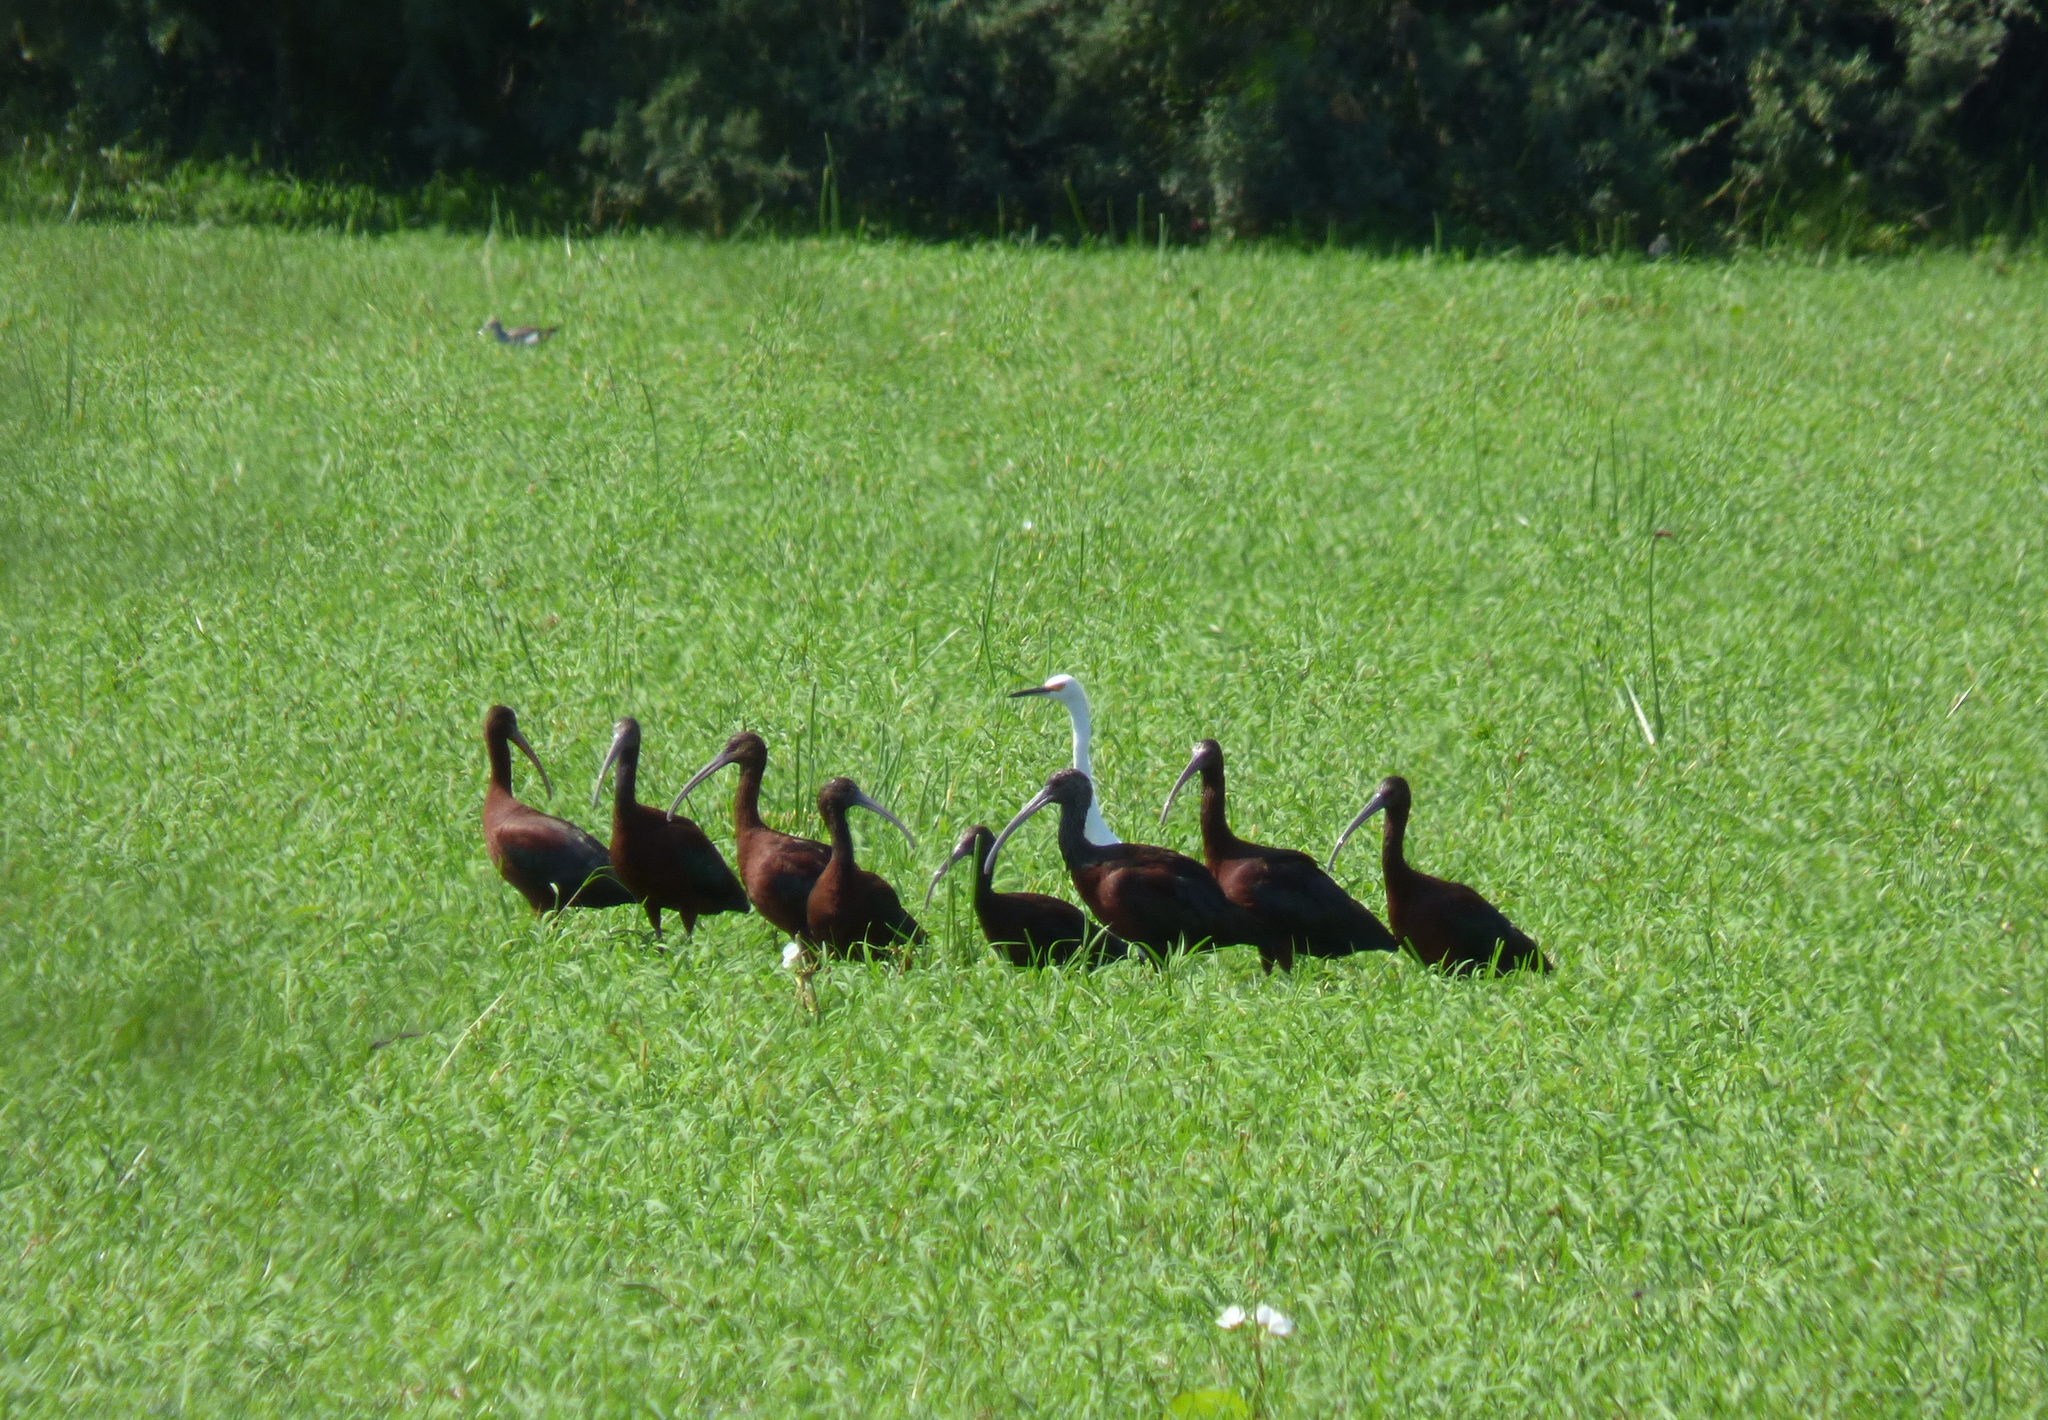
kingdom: Animalia
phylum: Chordata
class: Aves
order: Pelecaniformes
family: Threskiornithidae
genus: Plegadis
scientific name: Plegadis chihi
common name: White-faced ibis
